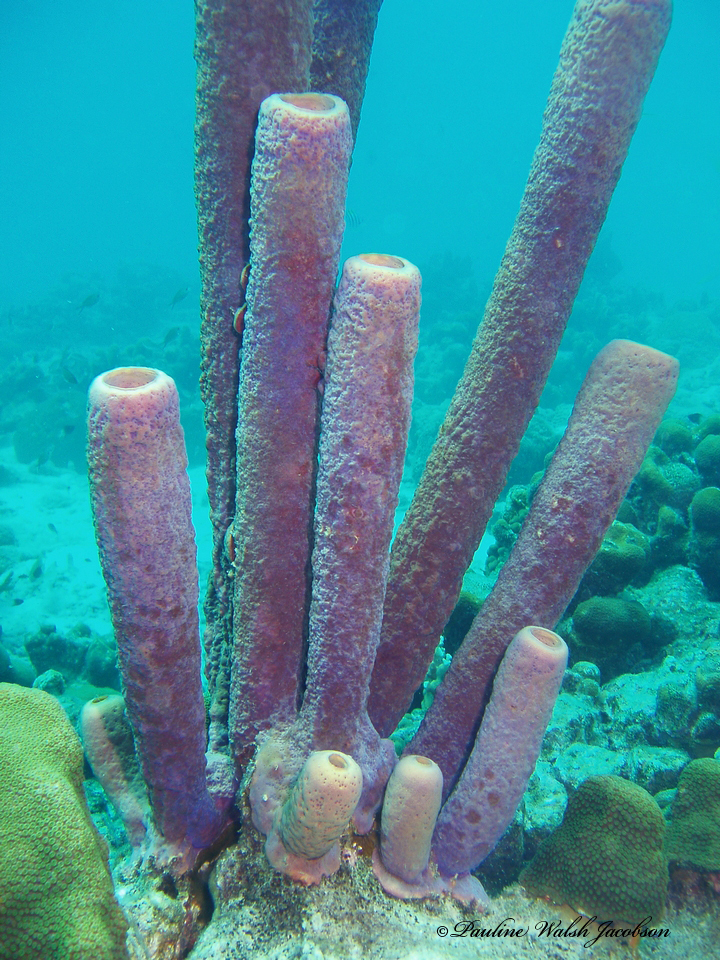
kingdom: Animalia
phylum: Porifera
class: Demospongiae
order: Verongiida
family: Aplysinidae
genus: Aplysina
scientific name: Aplysina archeri
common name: Stove-pipe sponge
